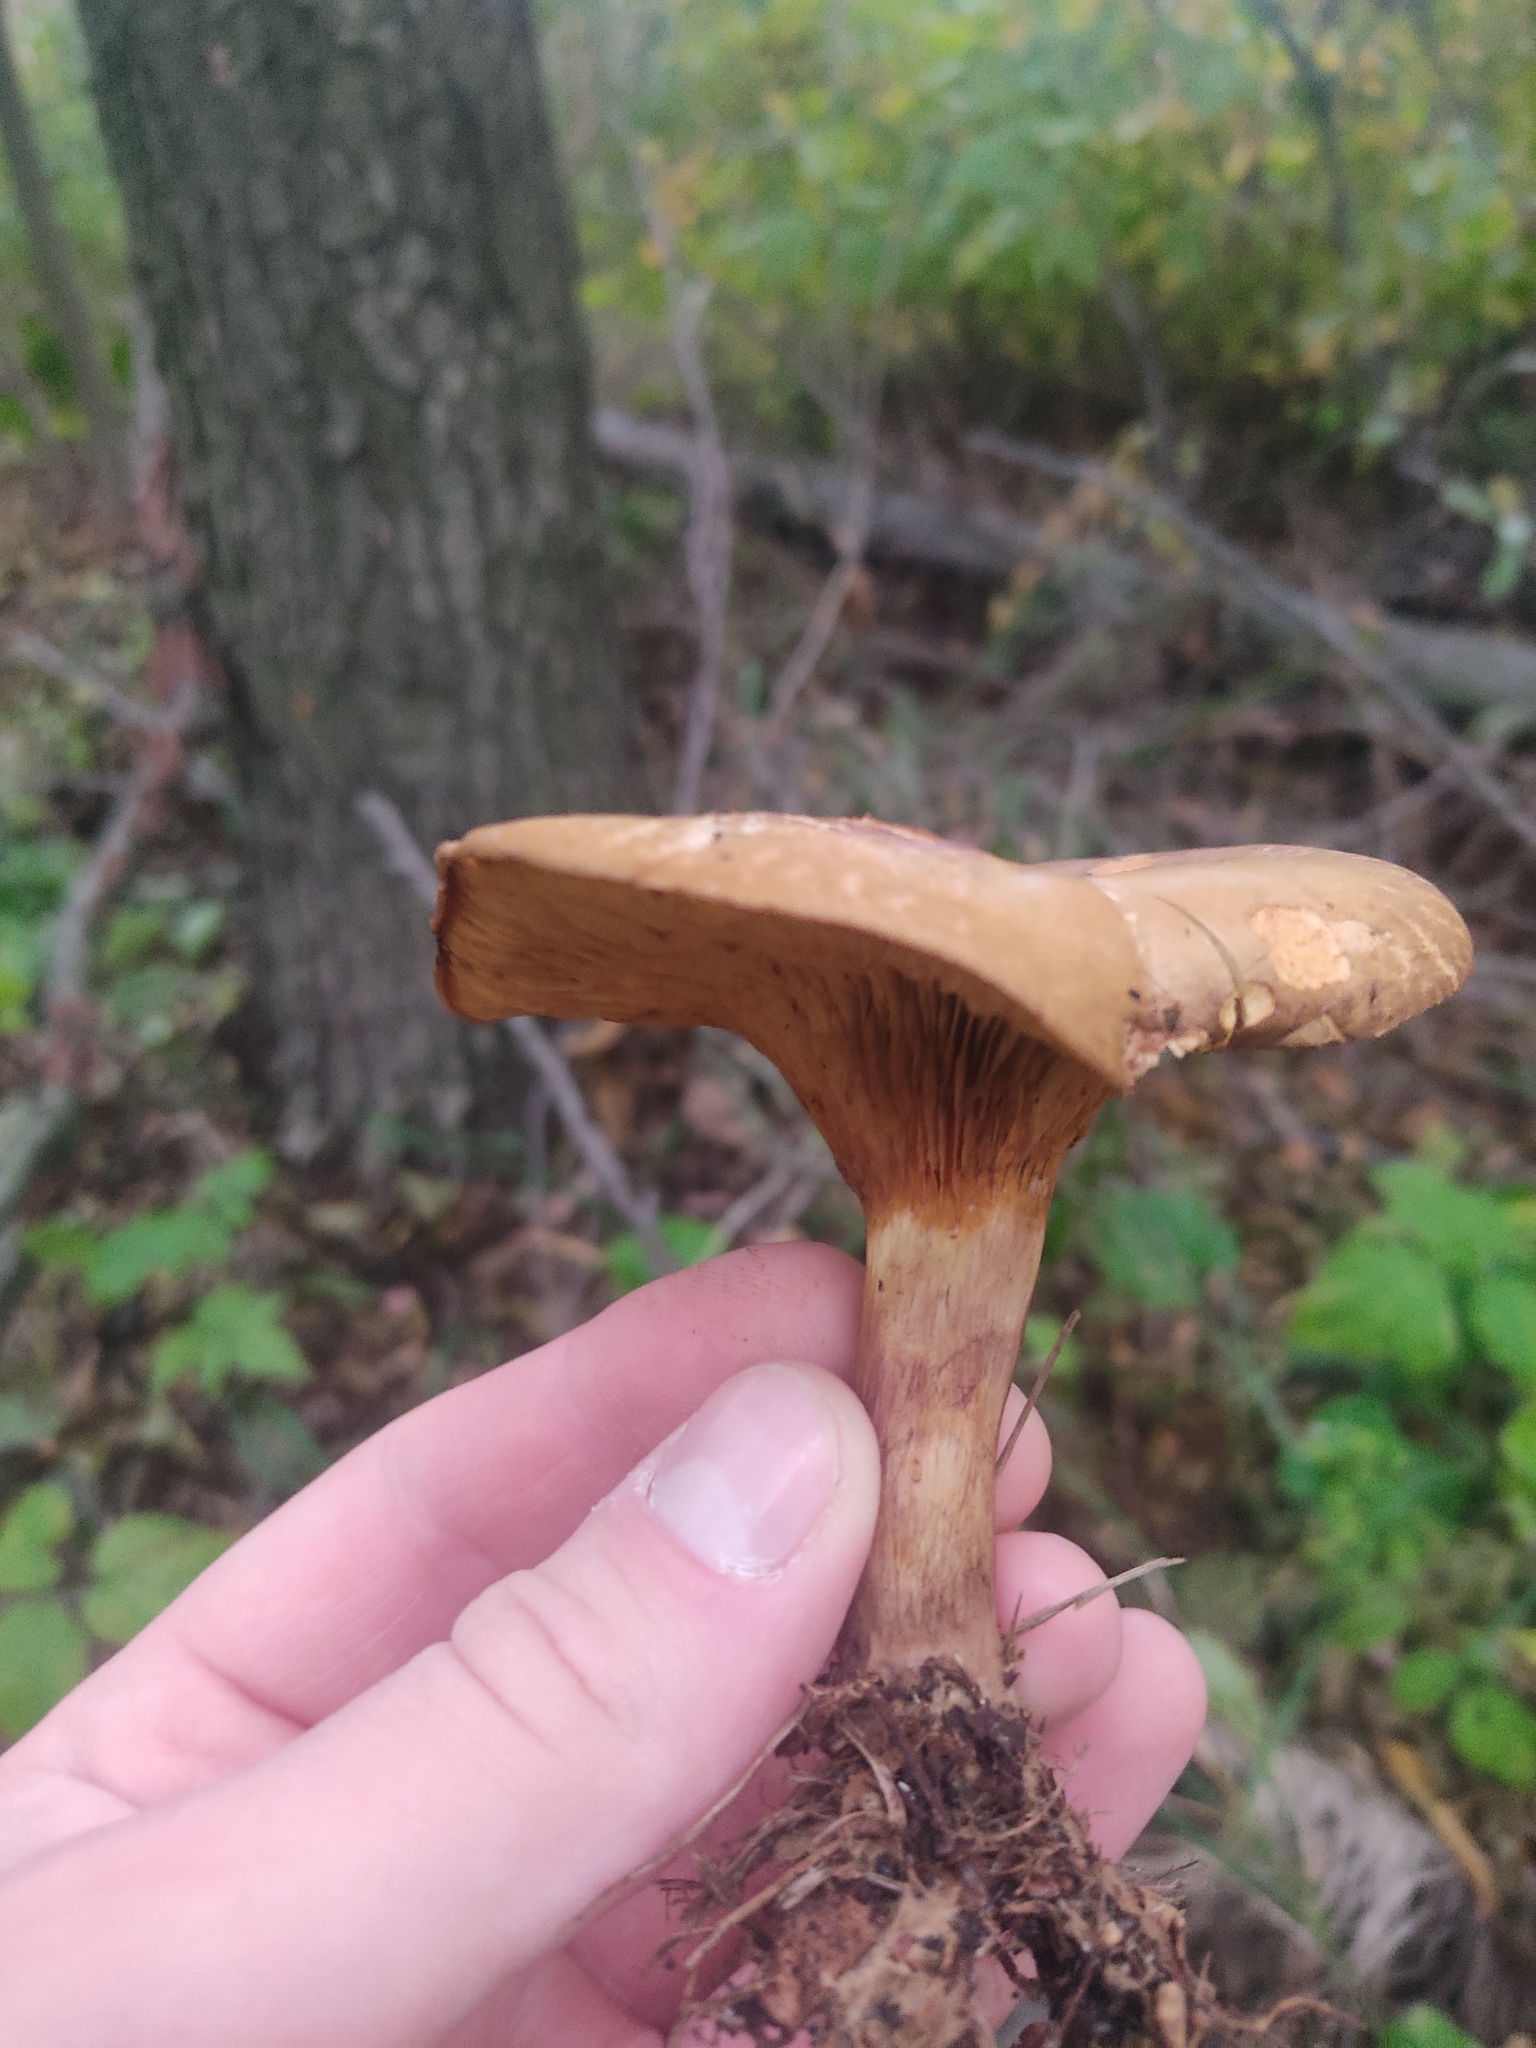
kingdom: Fungi
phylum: Basidiomycota
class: Agaricomycetes
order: Boletales
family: Paxillaceae
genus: Paxillus
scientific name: Paxillus involutus
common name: Brown roll rim
